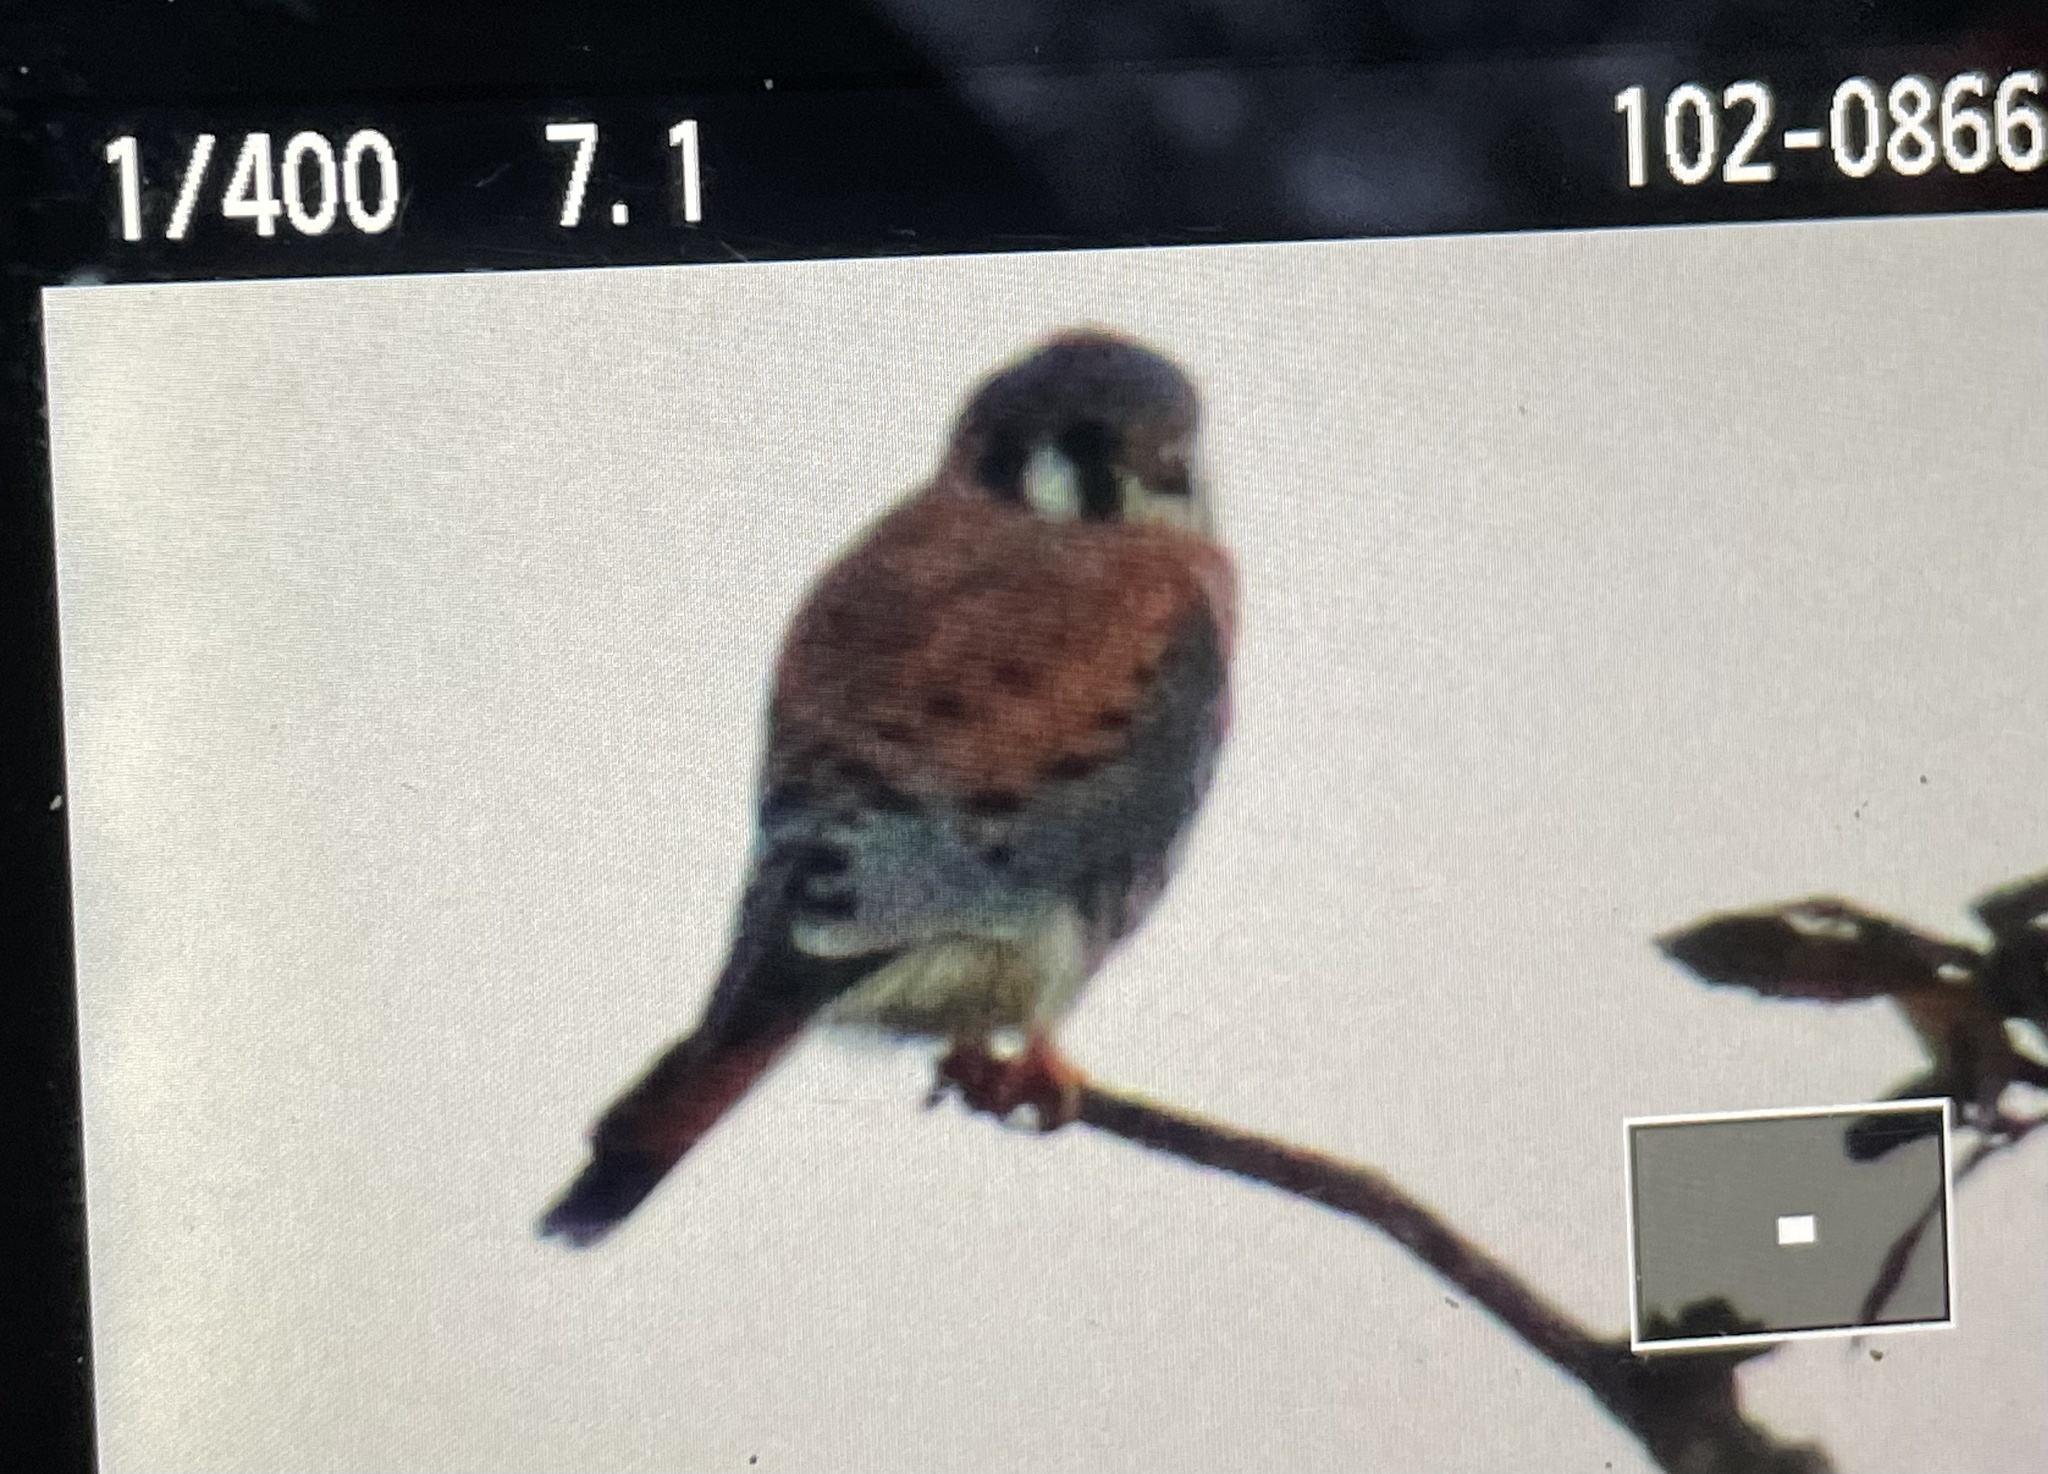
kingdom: Animalia
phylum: Chordata
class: Aves
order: Falconiformes
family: Falconidae
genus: Falco
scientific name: Falco sparverius
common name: American kestrel
